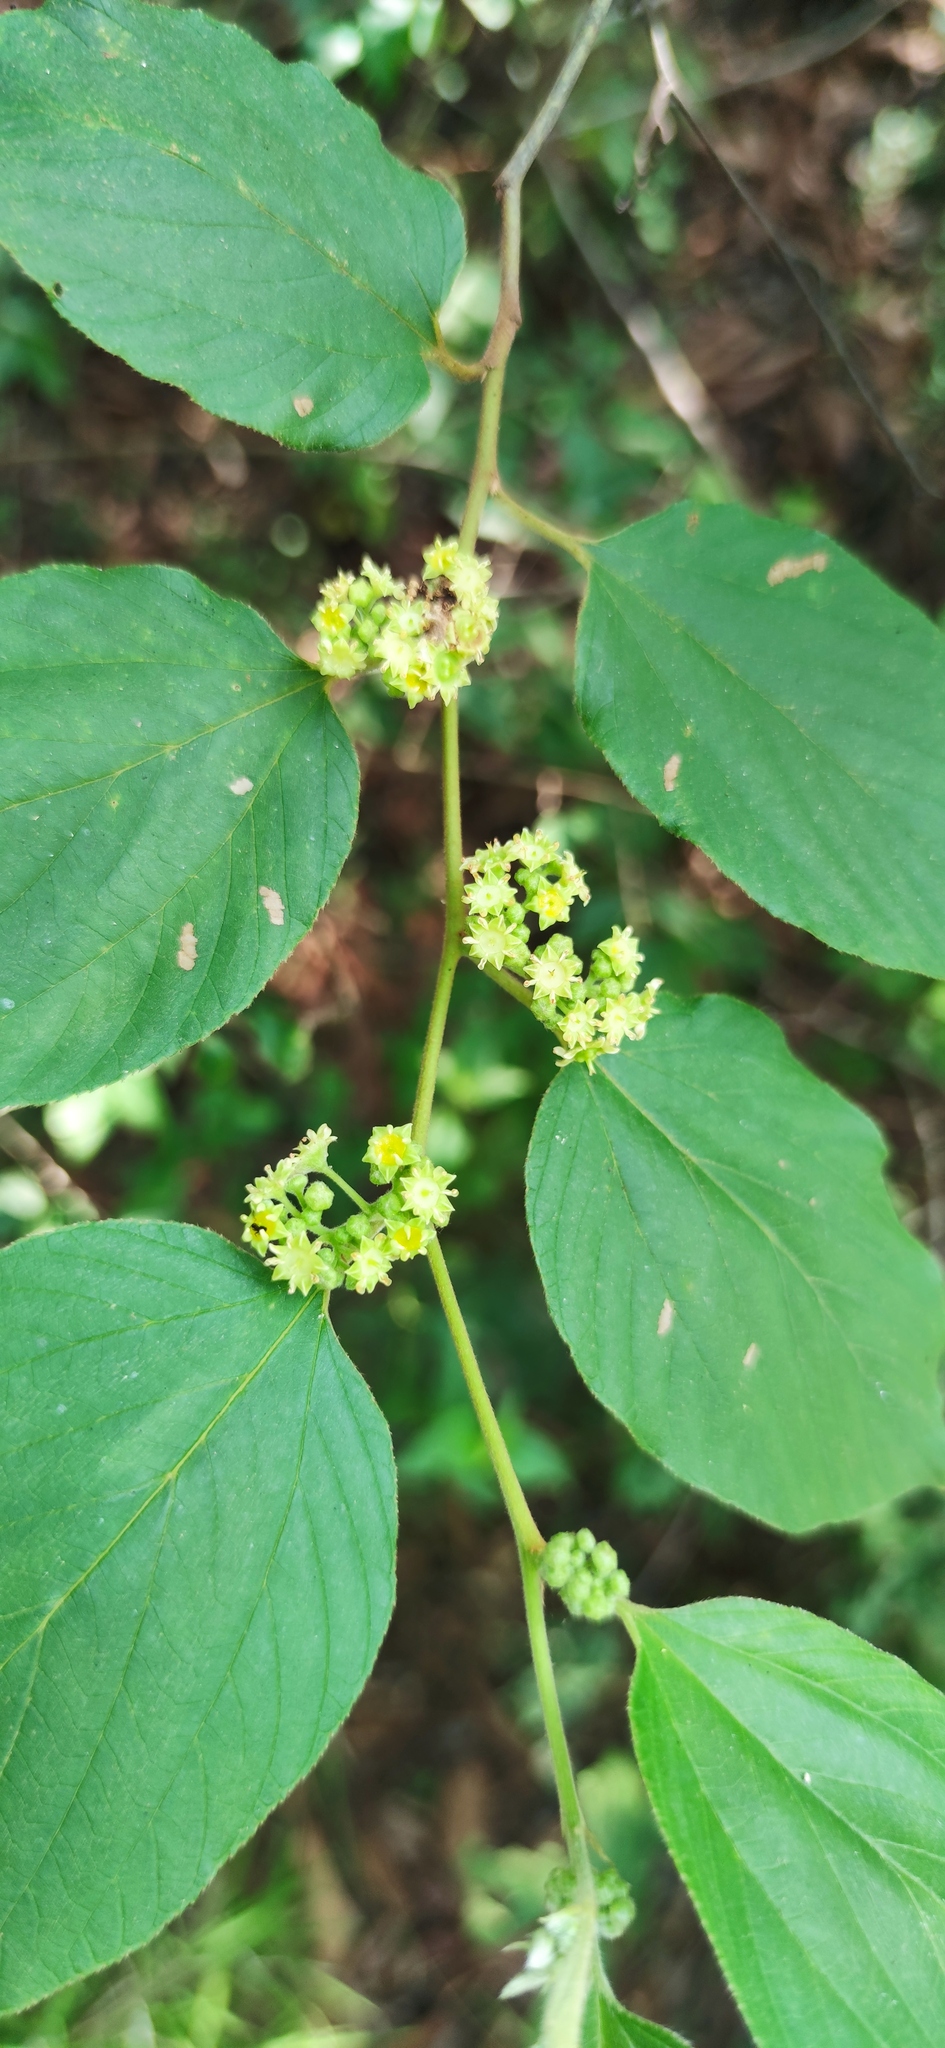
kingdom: Plantae
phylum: Tracheophyta
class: Magnoliopsida
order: Rosales
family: Rhamnaceae
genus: Colubrina
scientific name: Colubrina greggii
